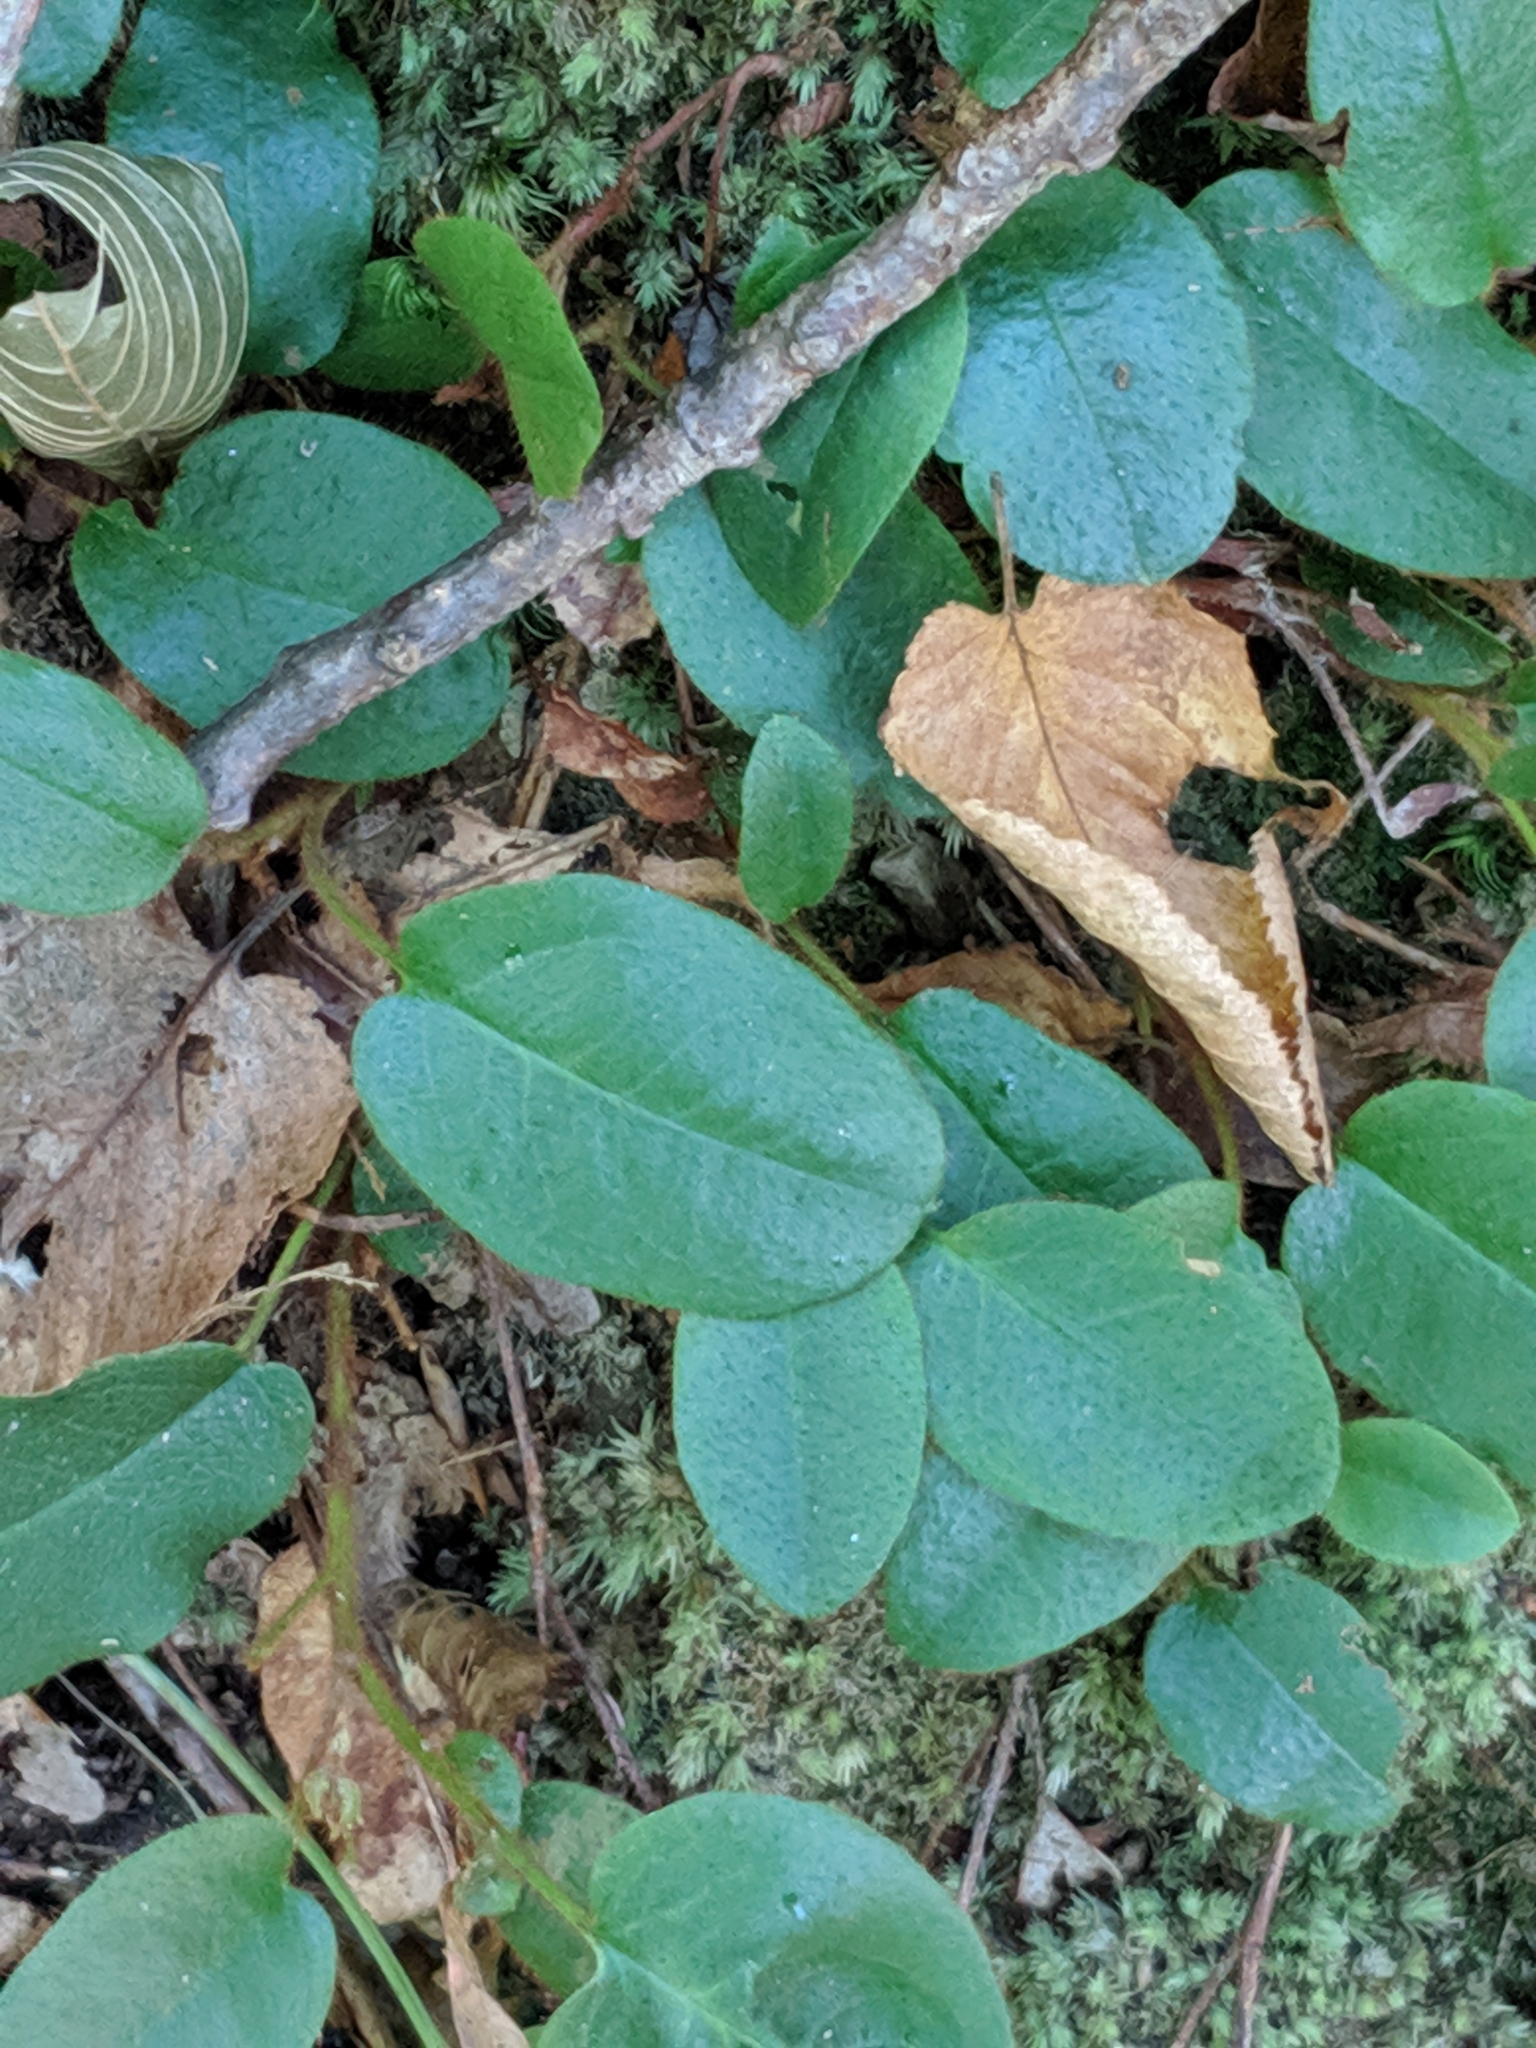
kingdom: Plantae
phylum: Tracheophyta
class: Magnoliopsida
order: Ericales
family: Ericaceae
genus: Epigaea
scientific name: Epigaea repens
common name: Gravelroot
